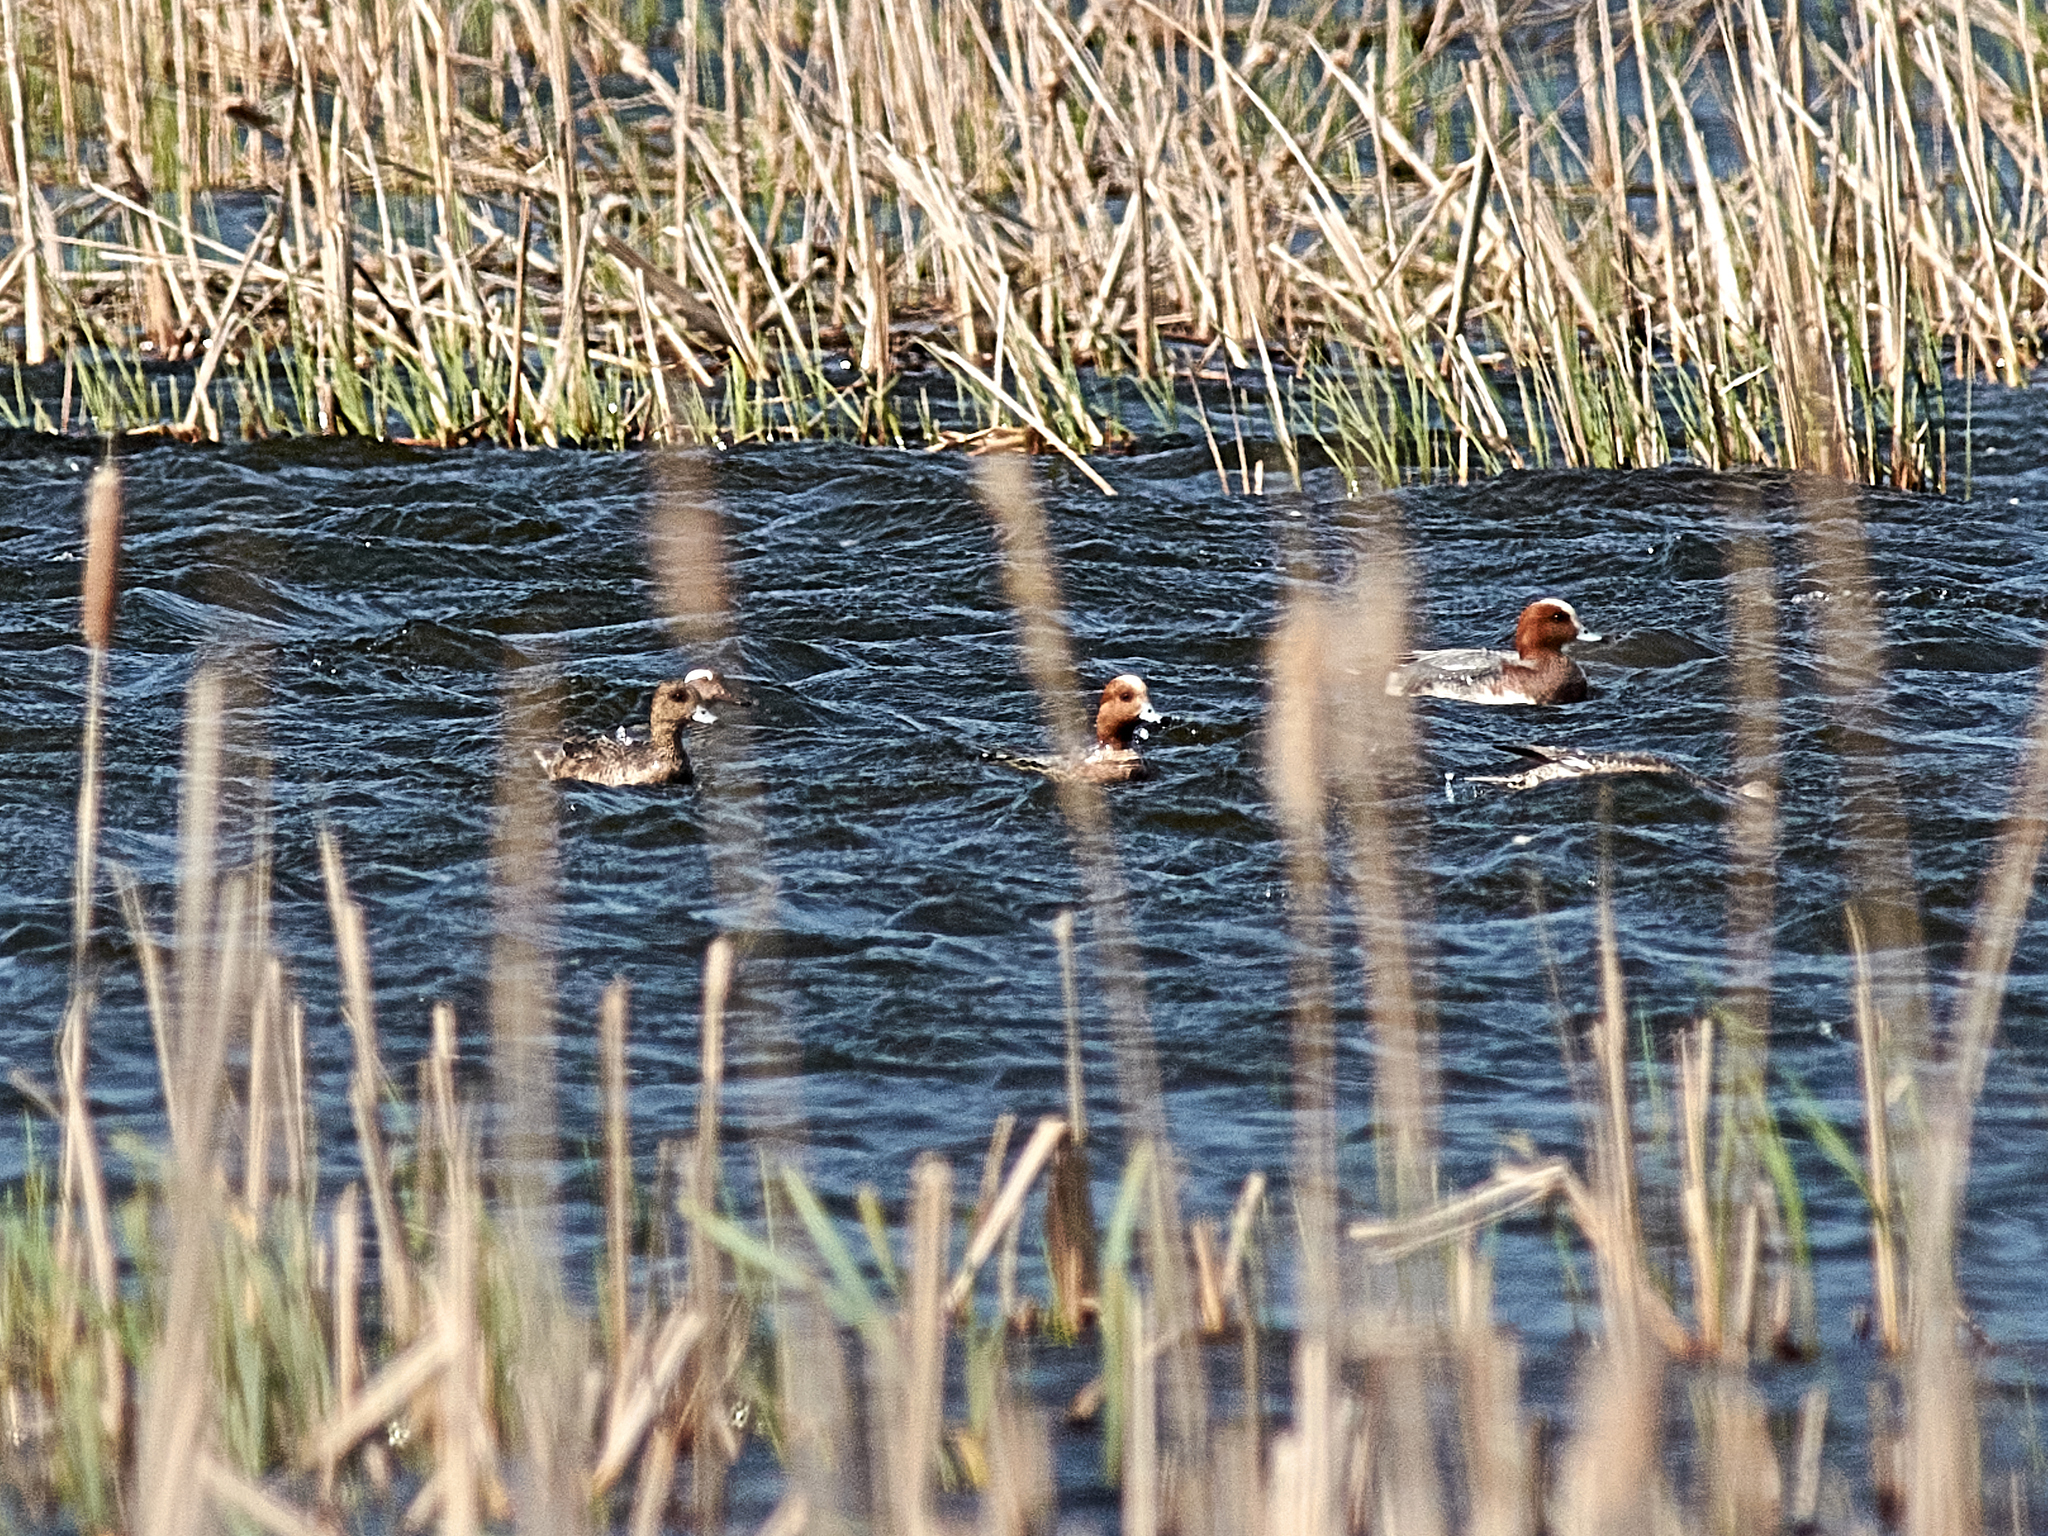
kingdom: Animalia
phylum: Chordata
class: Aves
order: Anseriformes
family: Anatidae
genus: Mareca
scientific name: Mareca penelope
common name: Eurasian wigeon
